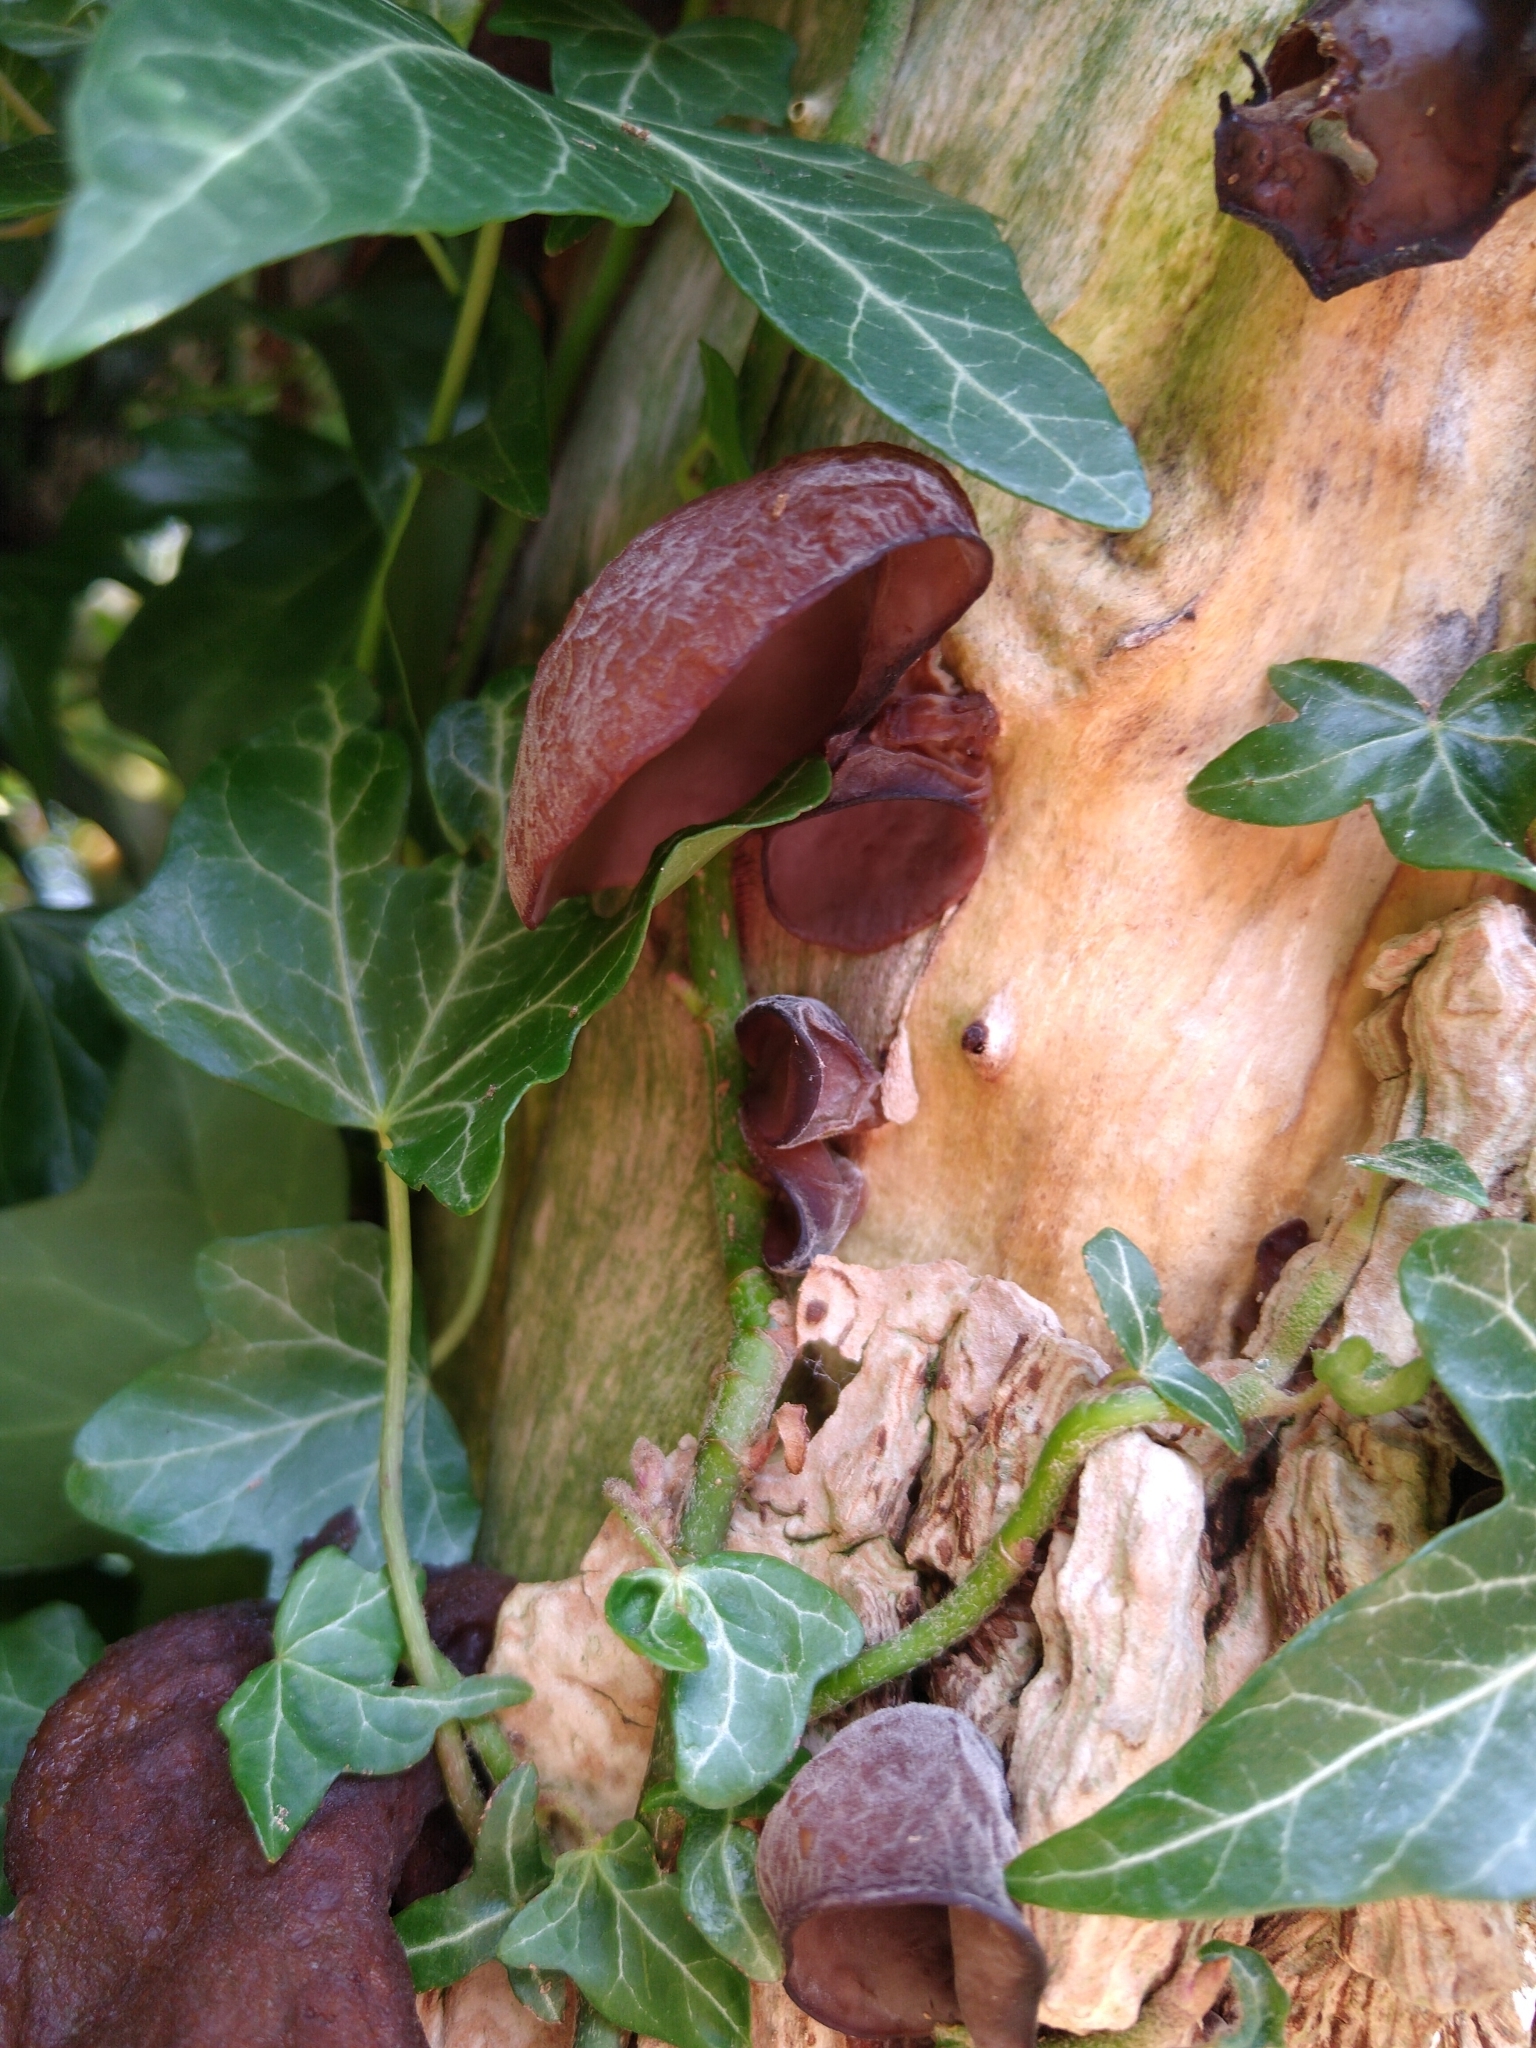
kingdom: Fungi
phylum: Basidiomycota
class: Agaricomycetes
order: Auriculariales
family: Auriculariaceae
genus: Auricularia
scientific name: Auricularia auricula-judae
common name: Jelly ear
